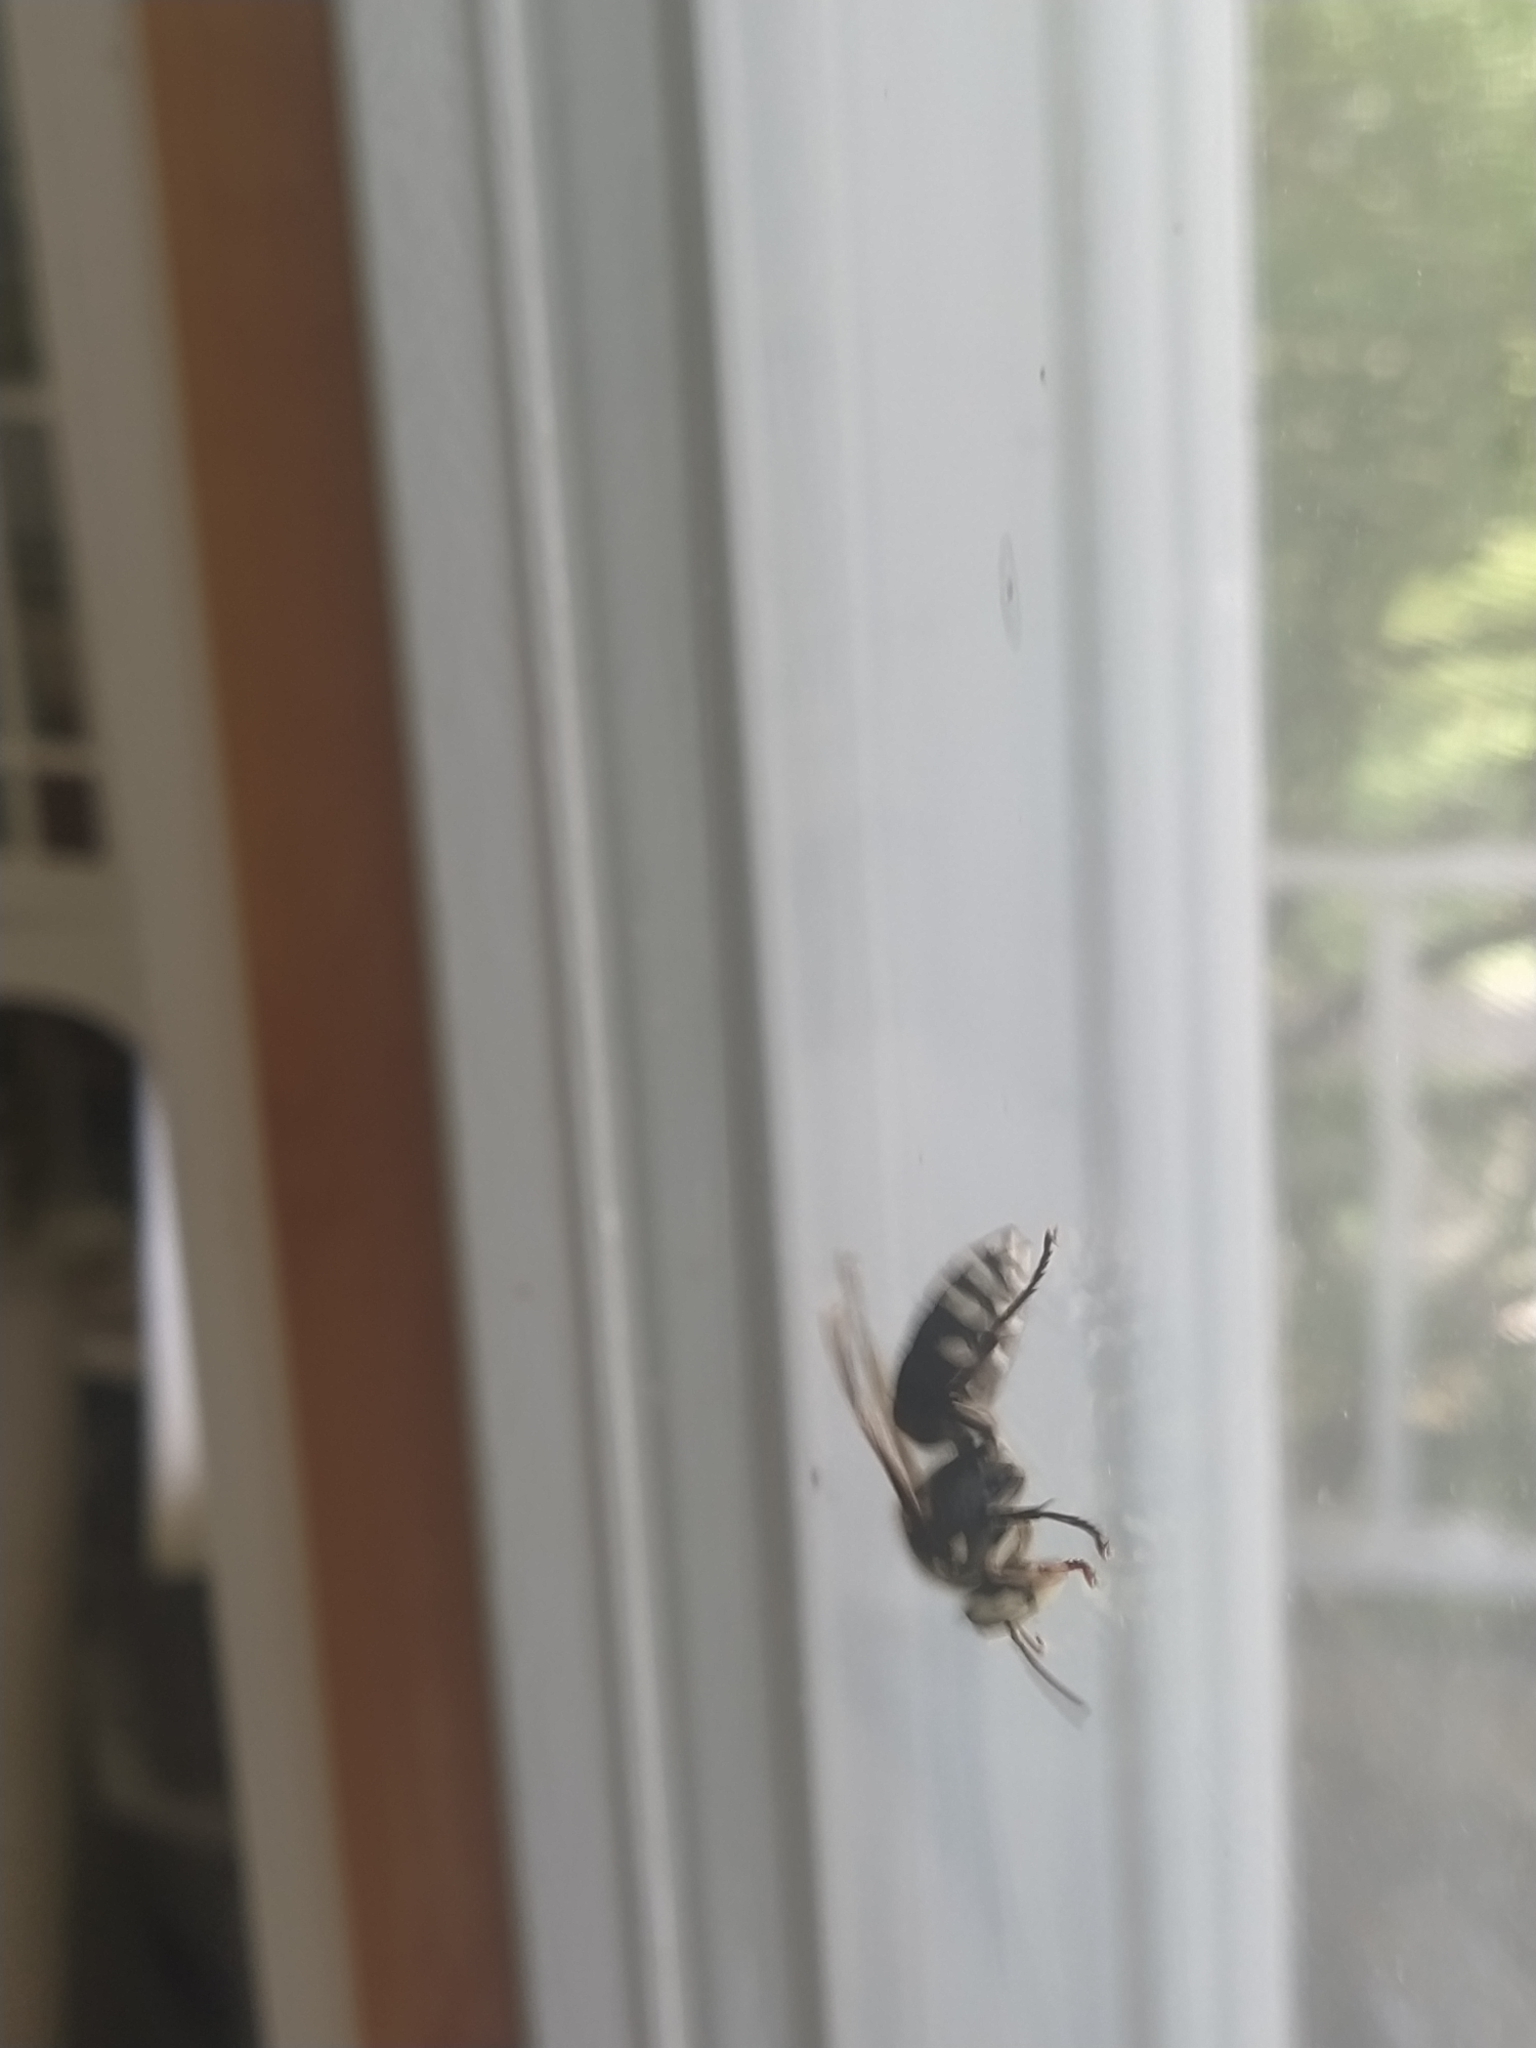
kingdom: Animalia
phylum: Arthropoda
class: Insecta
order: Hymenoptera
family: Vespidae
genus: Dolichovespula
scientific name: Dolichovespula maculata
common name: Bald-faced hornet
